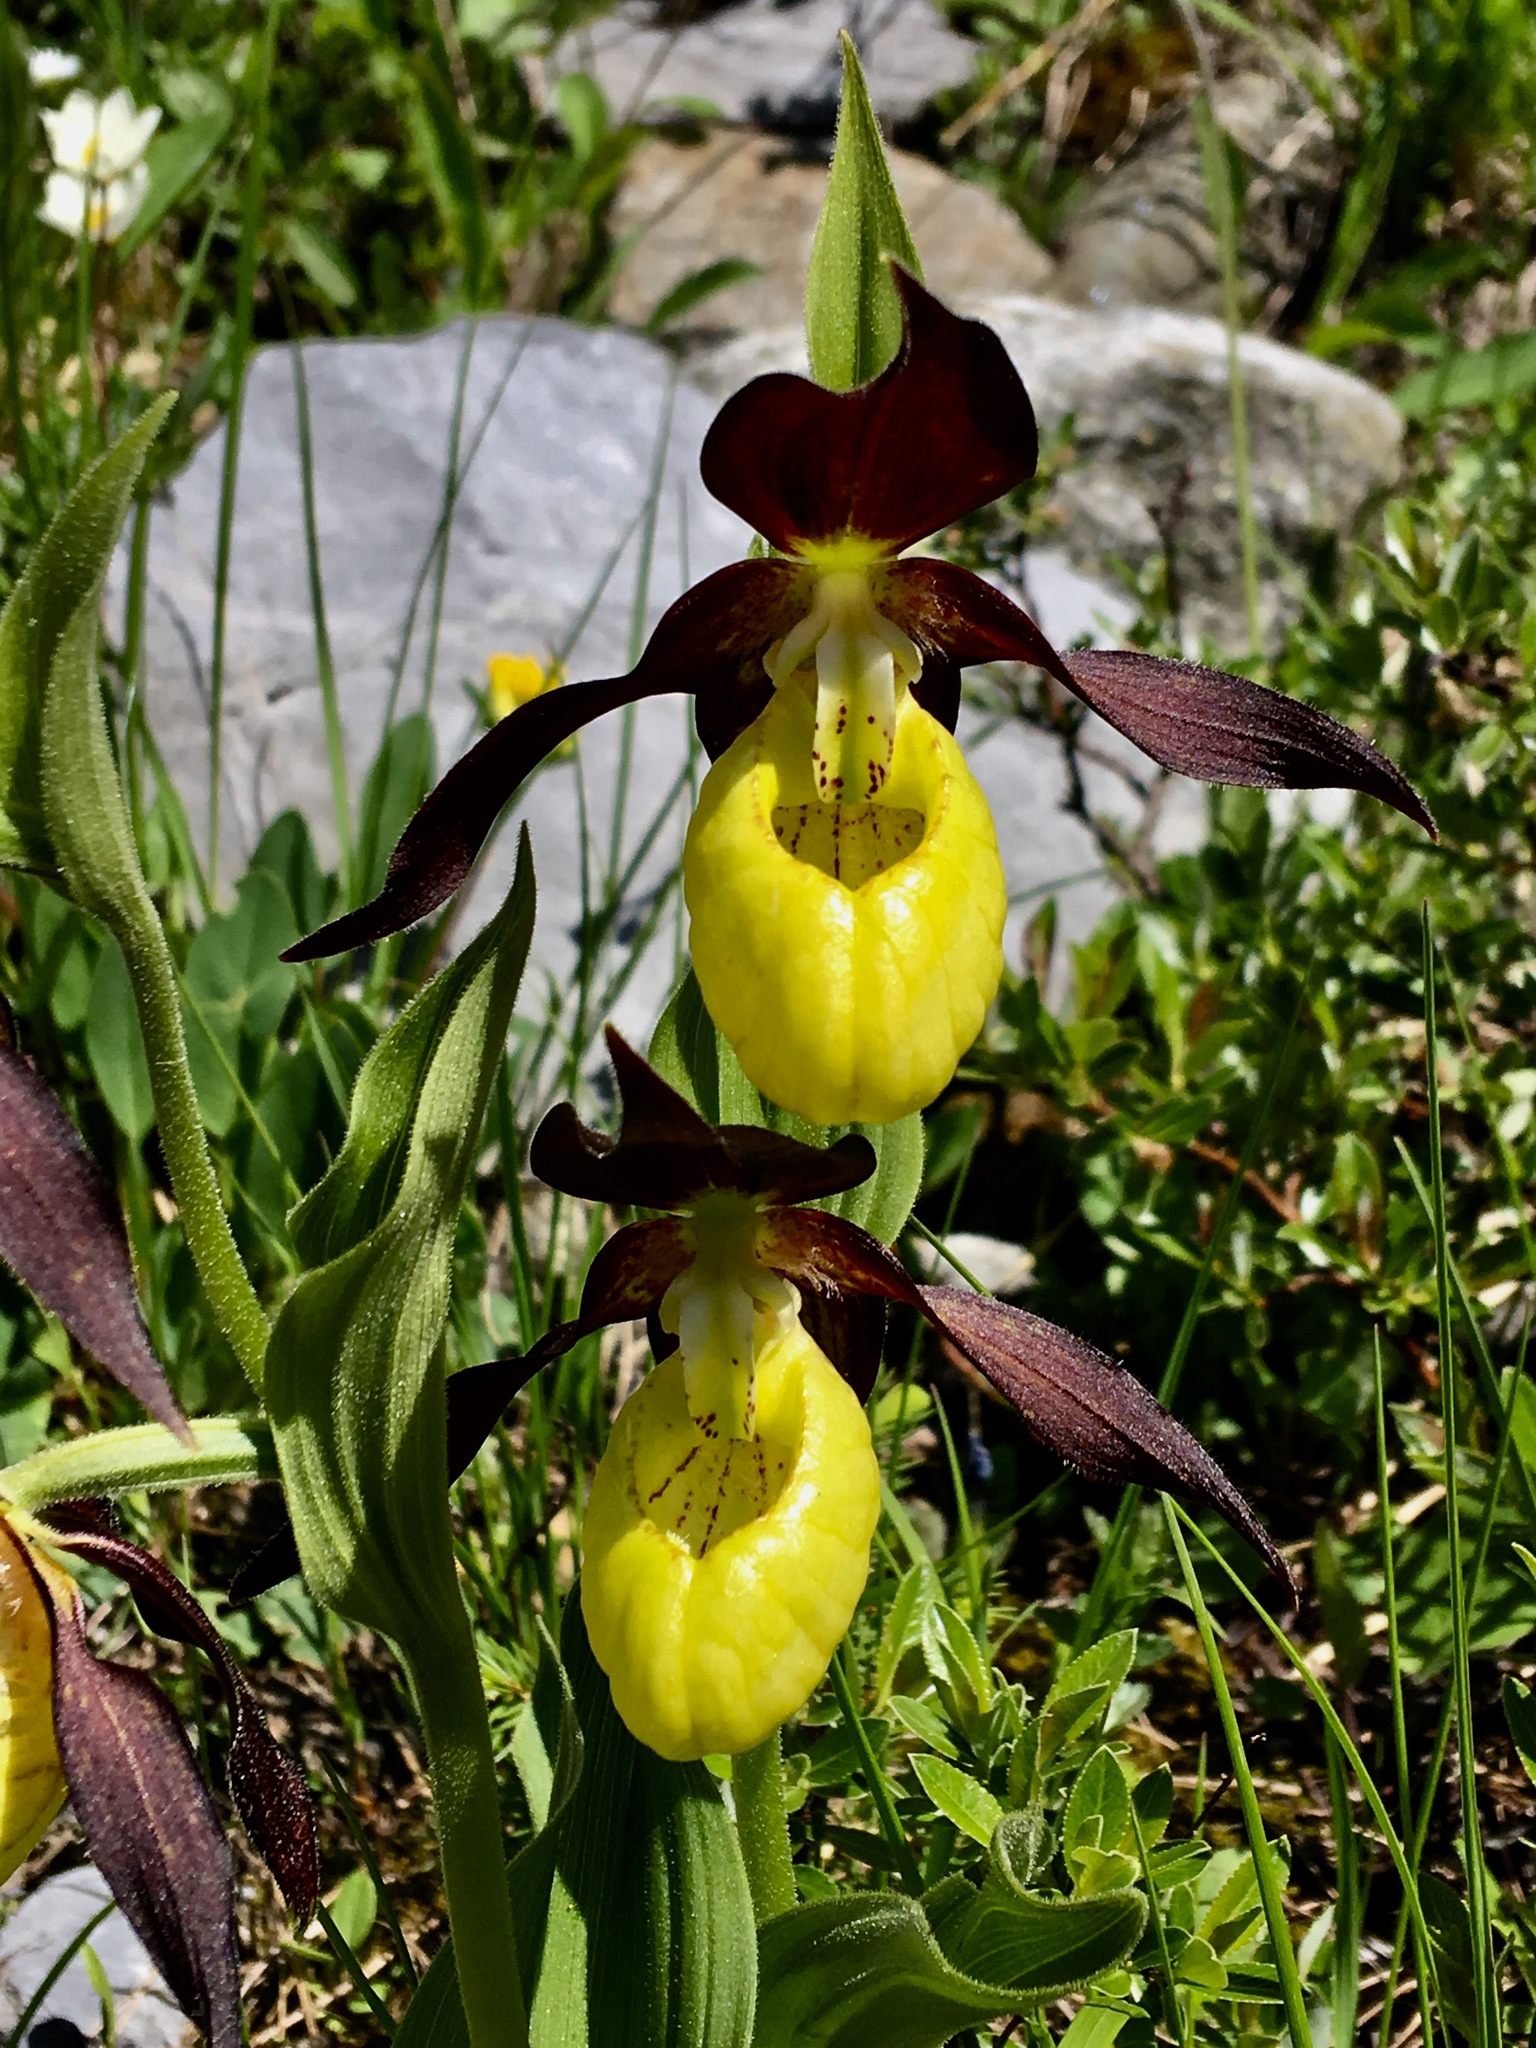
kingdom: Plantae
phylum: Tracheophyta
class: Liliopsida
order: Asparagales
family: Orchidaceae
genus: Cypripedium
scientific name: Cypripedium calceolus
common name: Lady's-slipper
